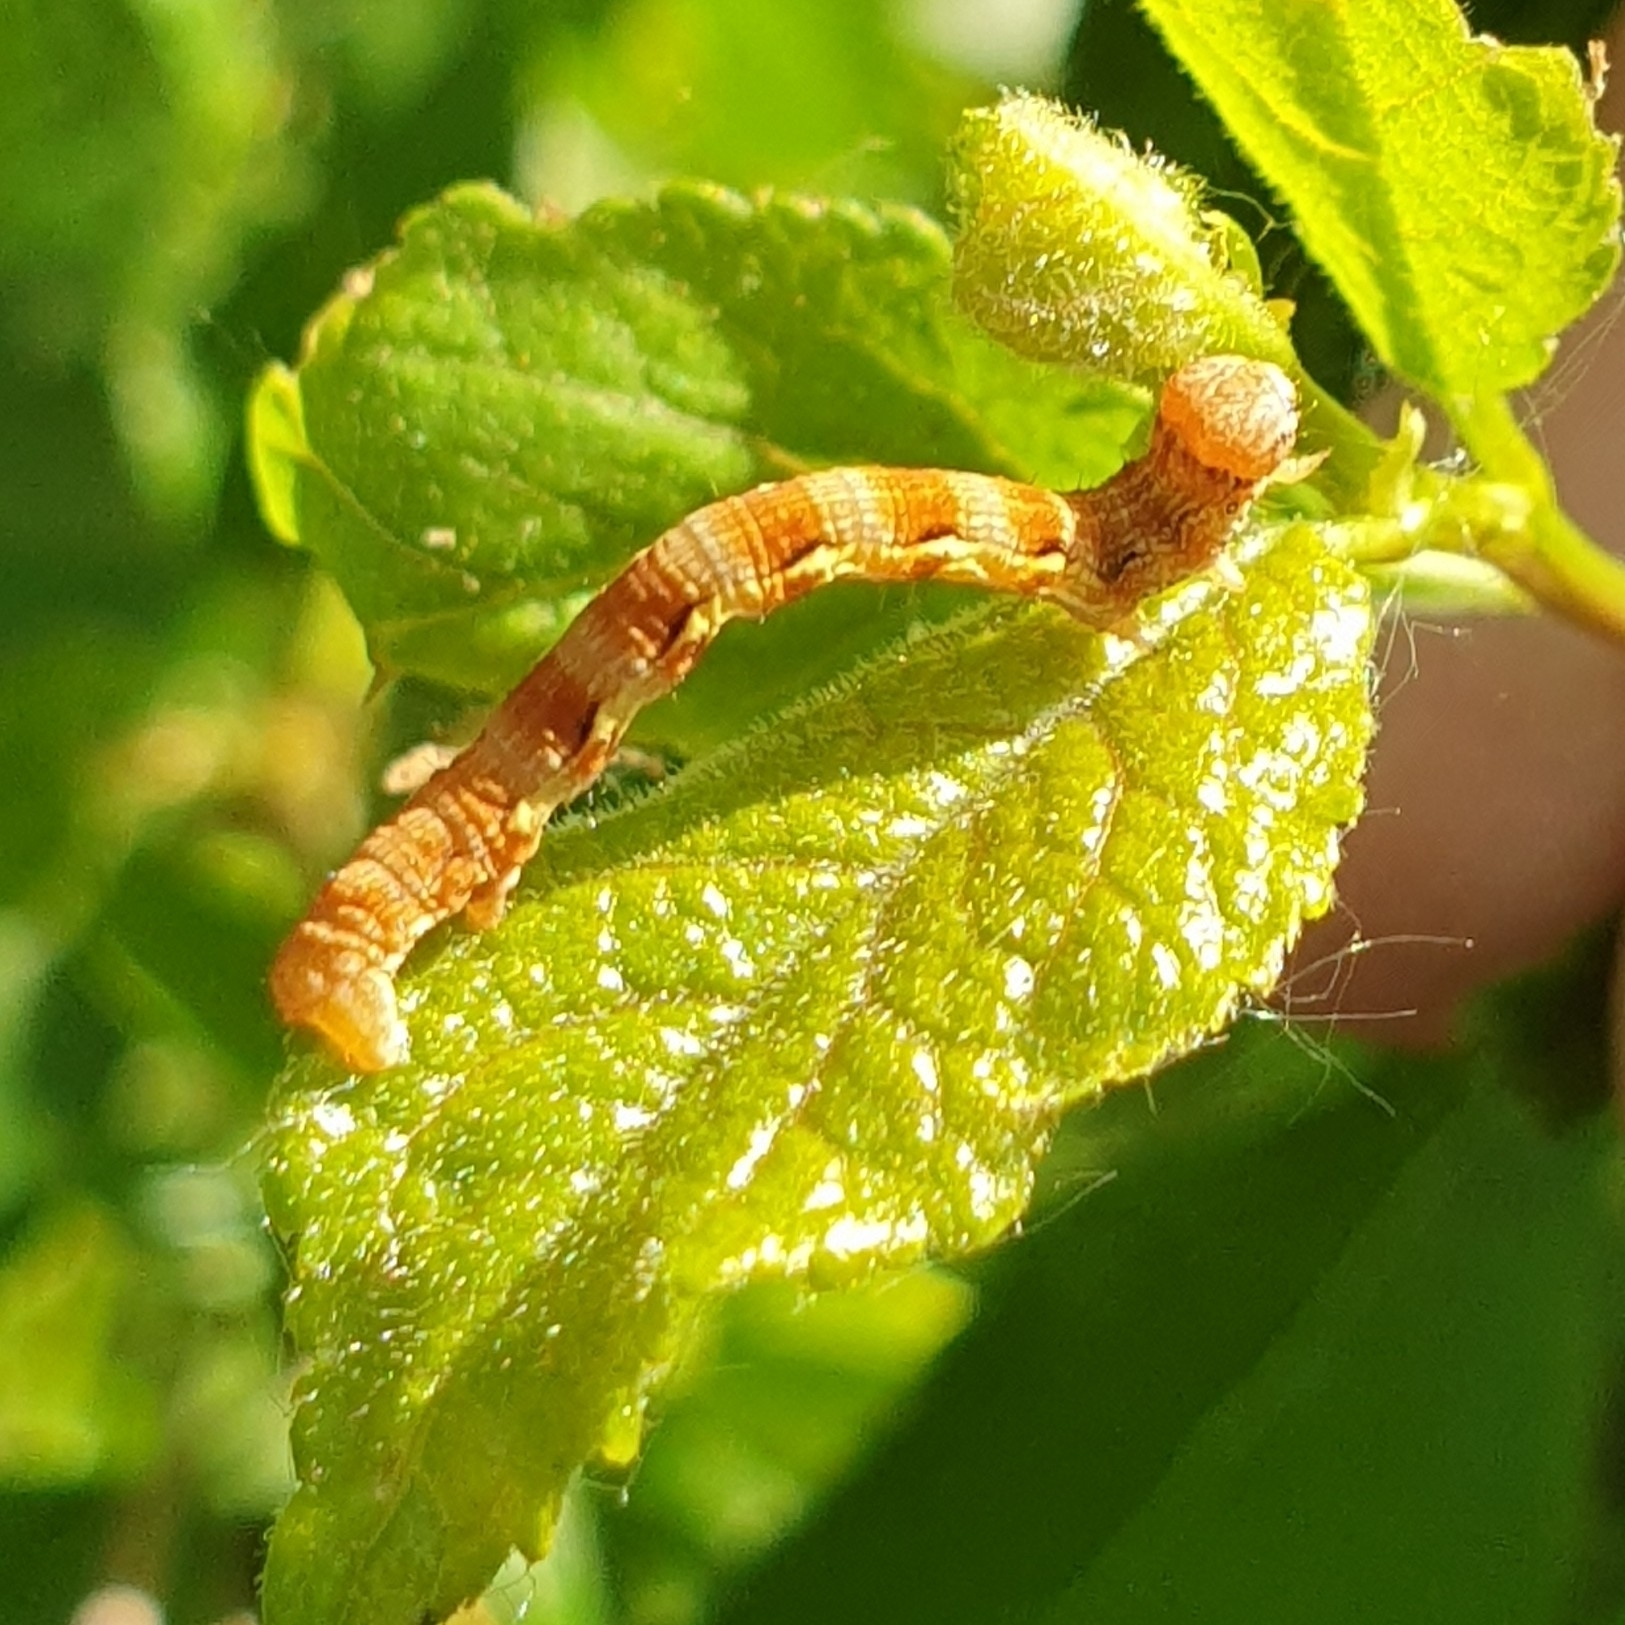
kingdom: Animalia
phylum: Arthropoda
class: Insecta
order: Lepidoptera
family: Geometridae
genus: Erannis
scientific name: Erannis defoliaria
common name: Mottled umber
